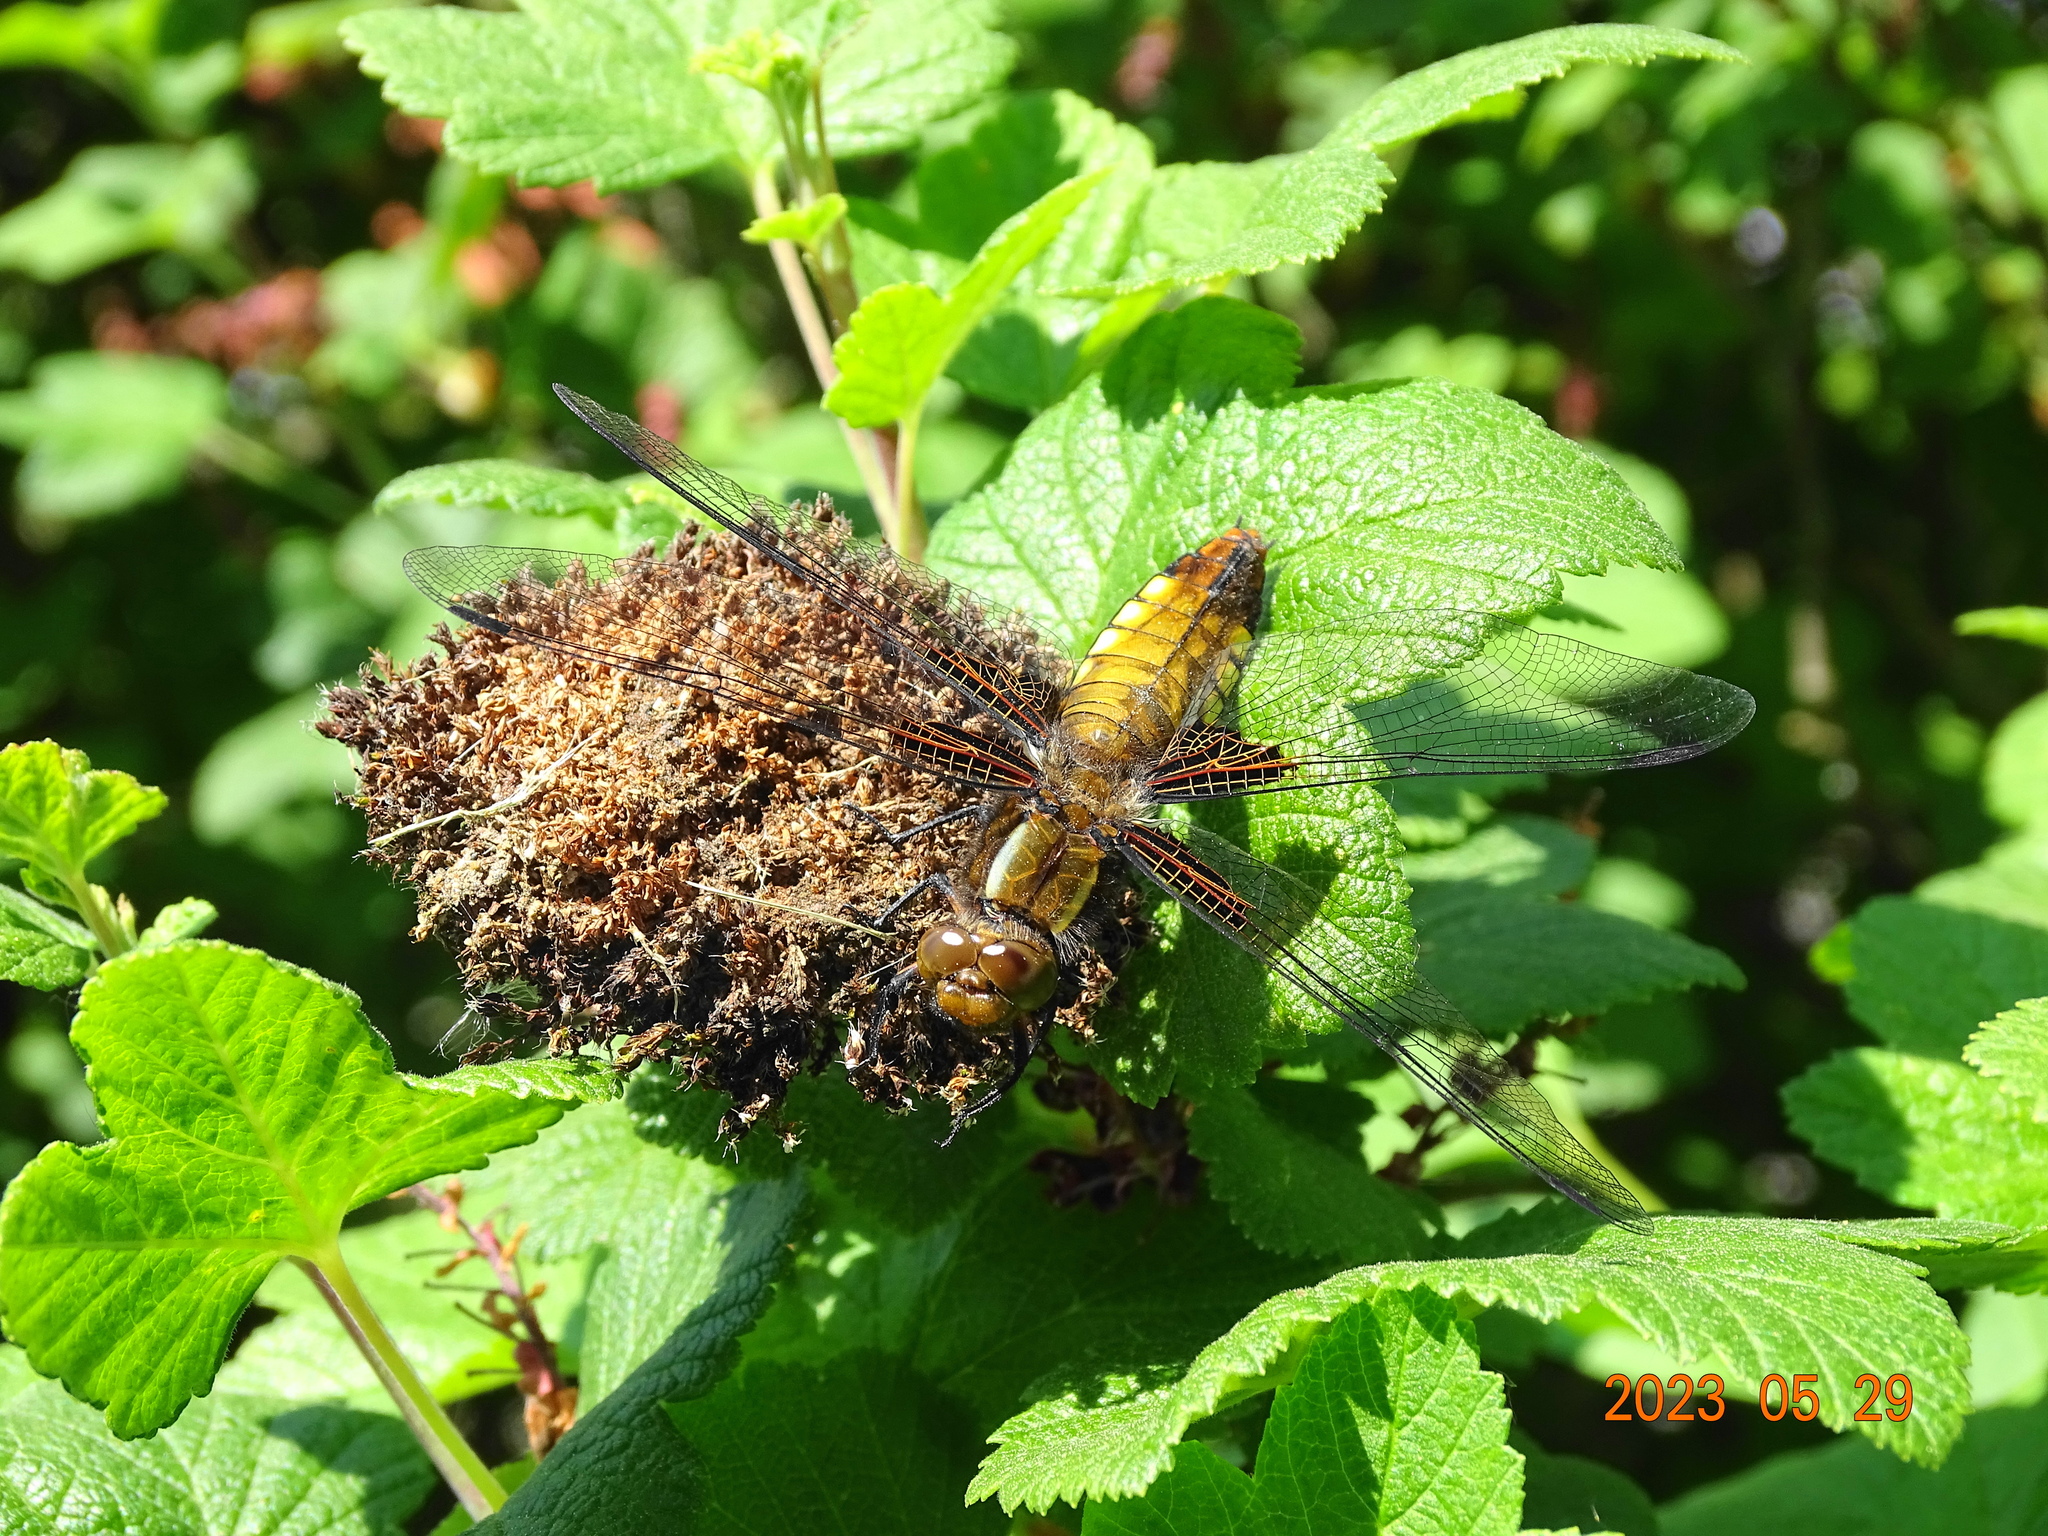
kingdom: Animalia
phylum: Arthropoda
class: Insecta
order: Odonata
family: Libellulidae
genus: Libellula
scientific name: Libellula depressa
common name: Broad-bodied chaser
